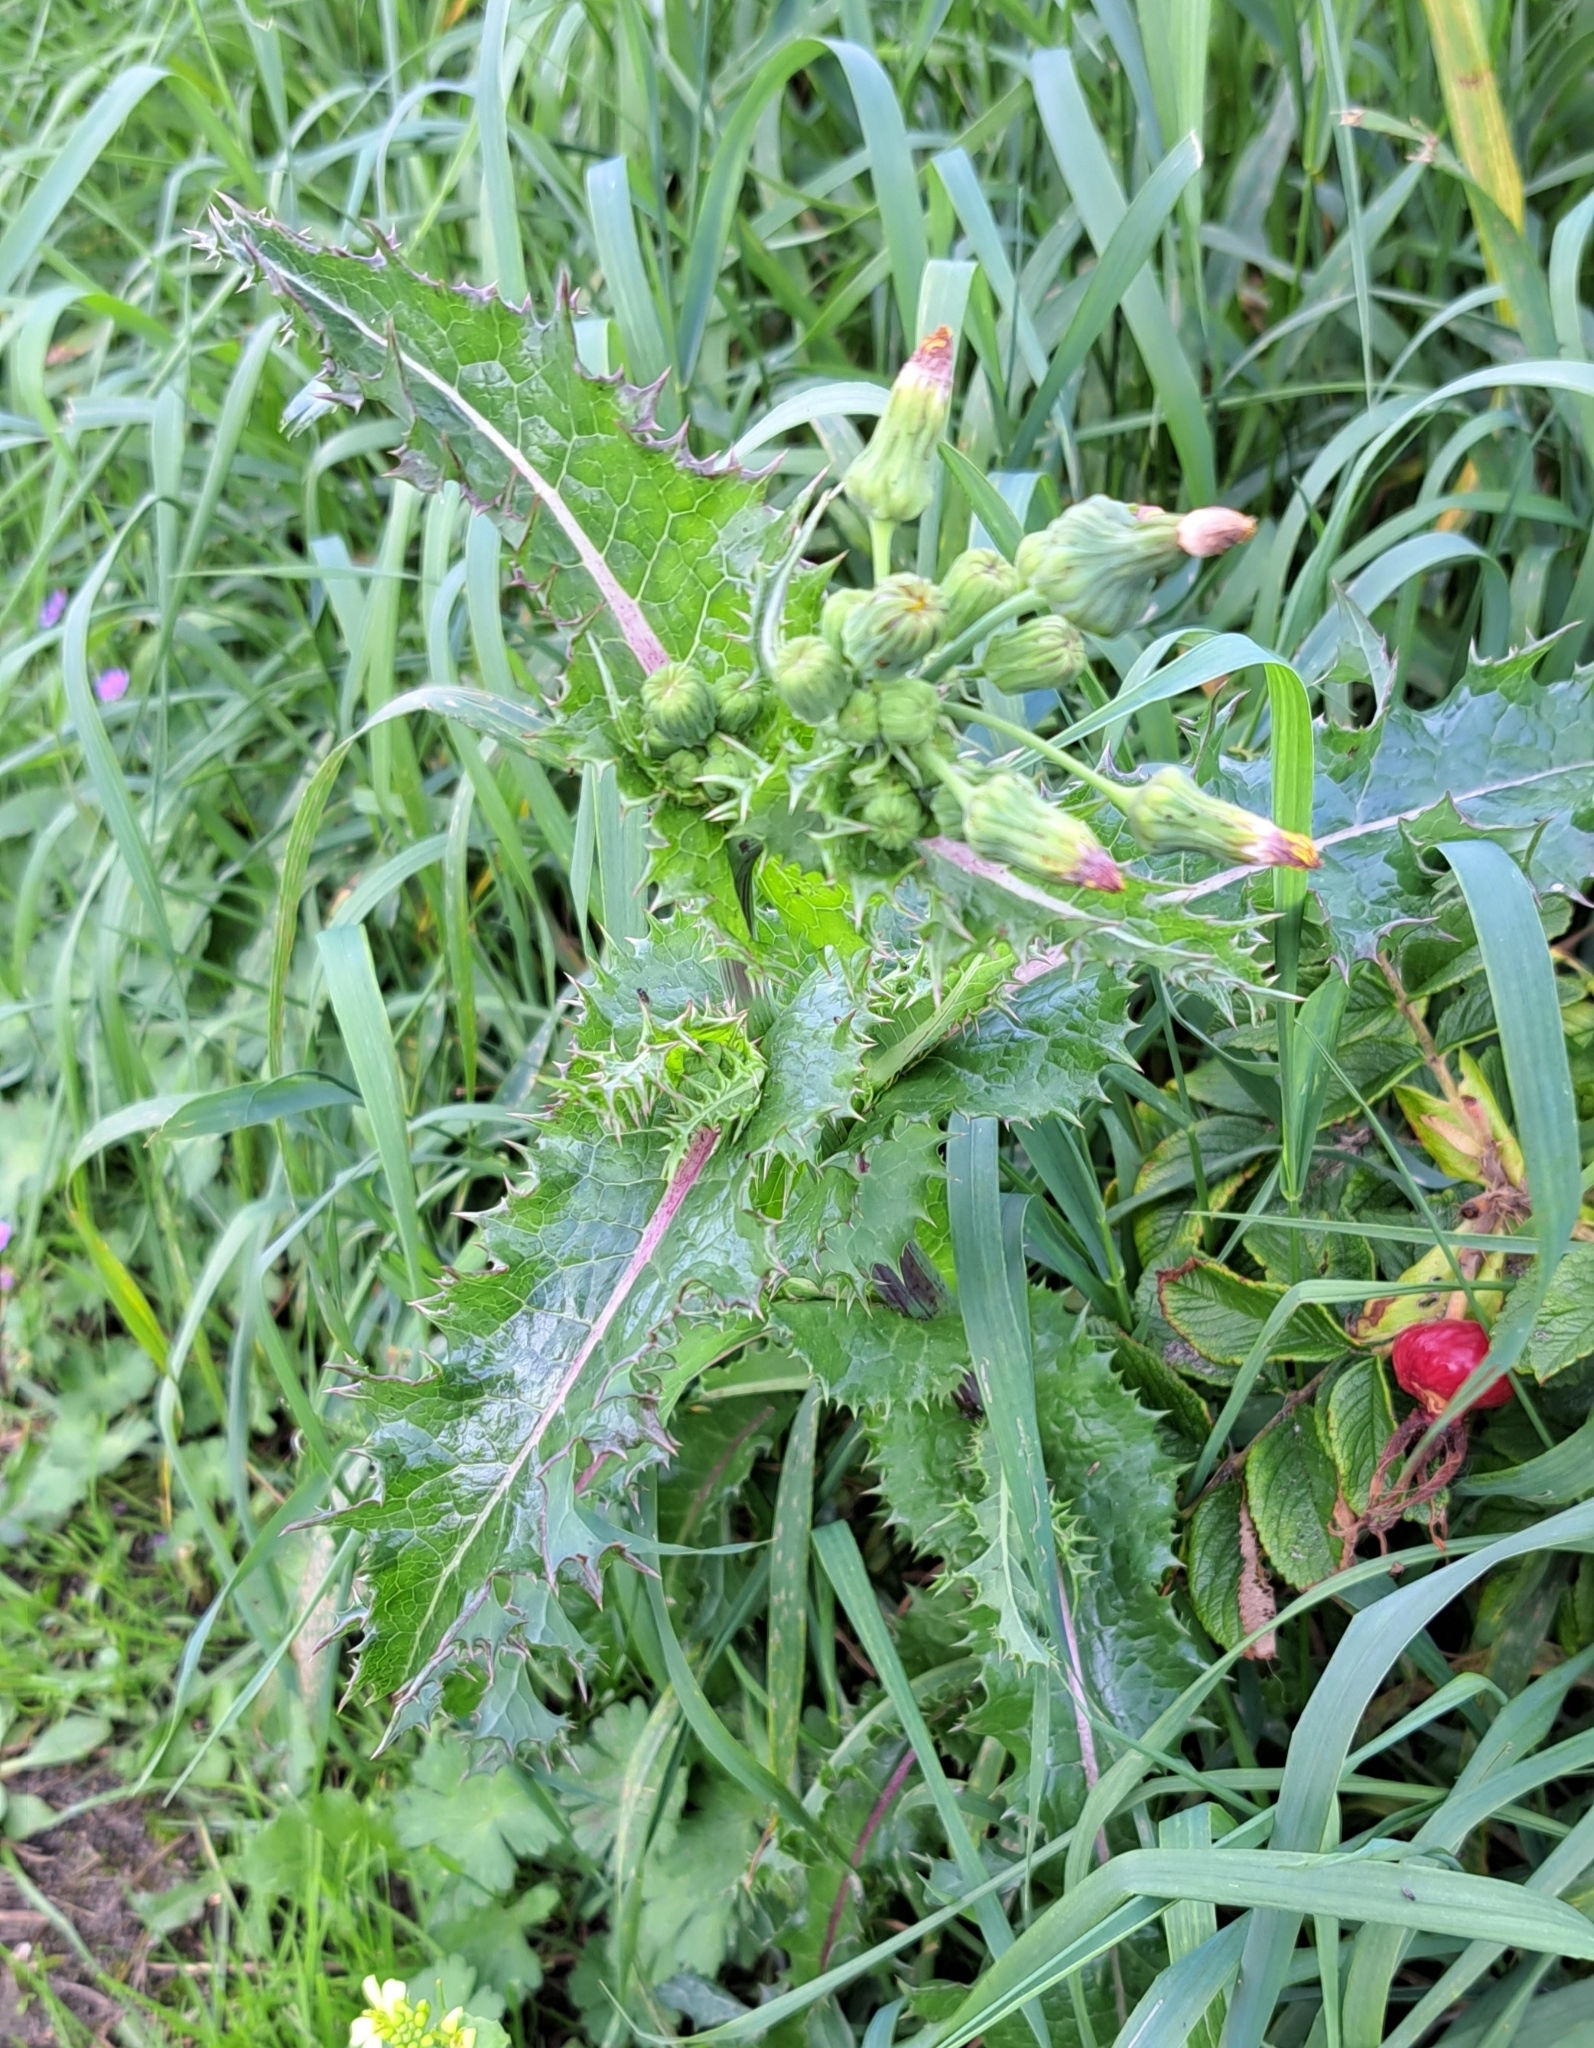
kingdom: Plantae
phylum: Tracheophyta
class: Magnoliopsida
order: Asterales
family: Asteraceae
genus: Sonchus
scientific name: Sonchus asper
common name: Prickly sow-thistle
